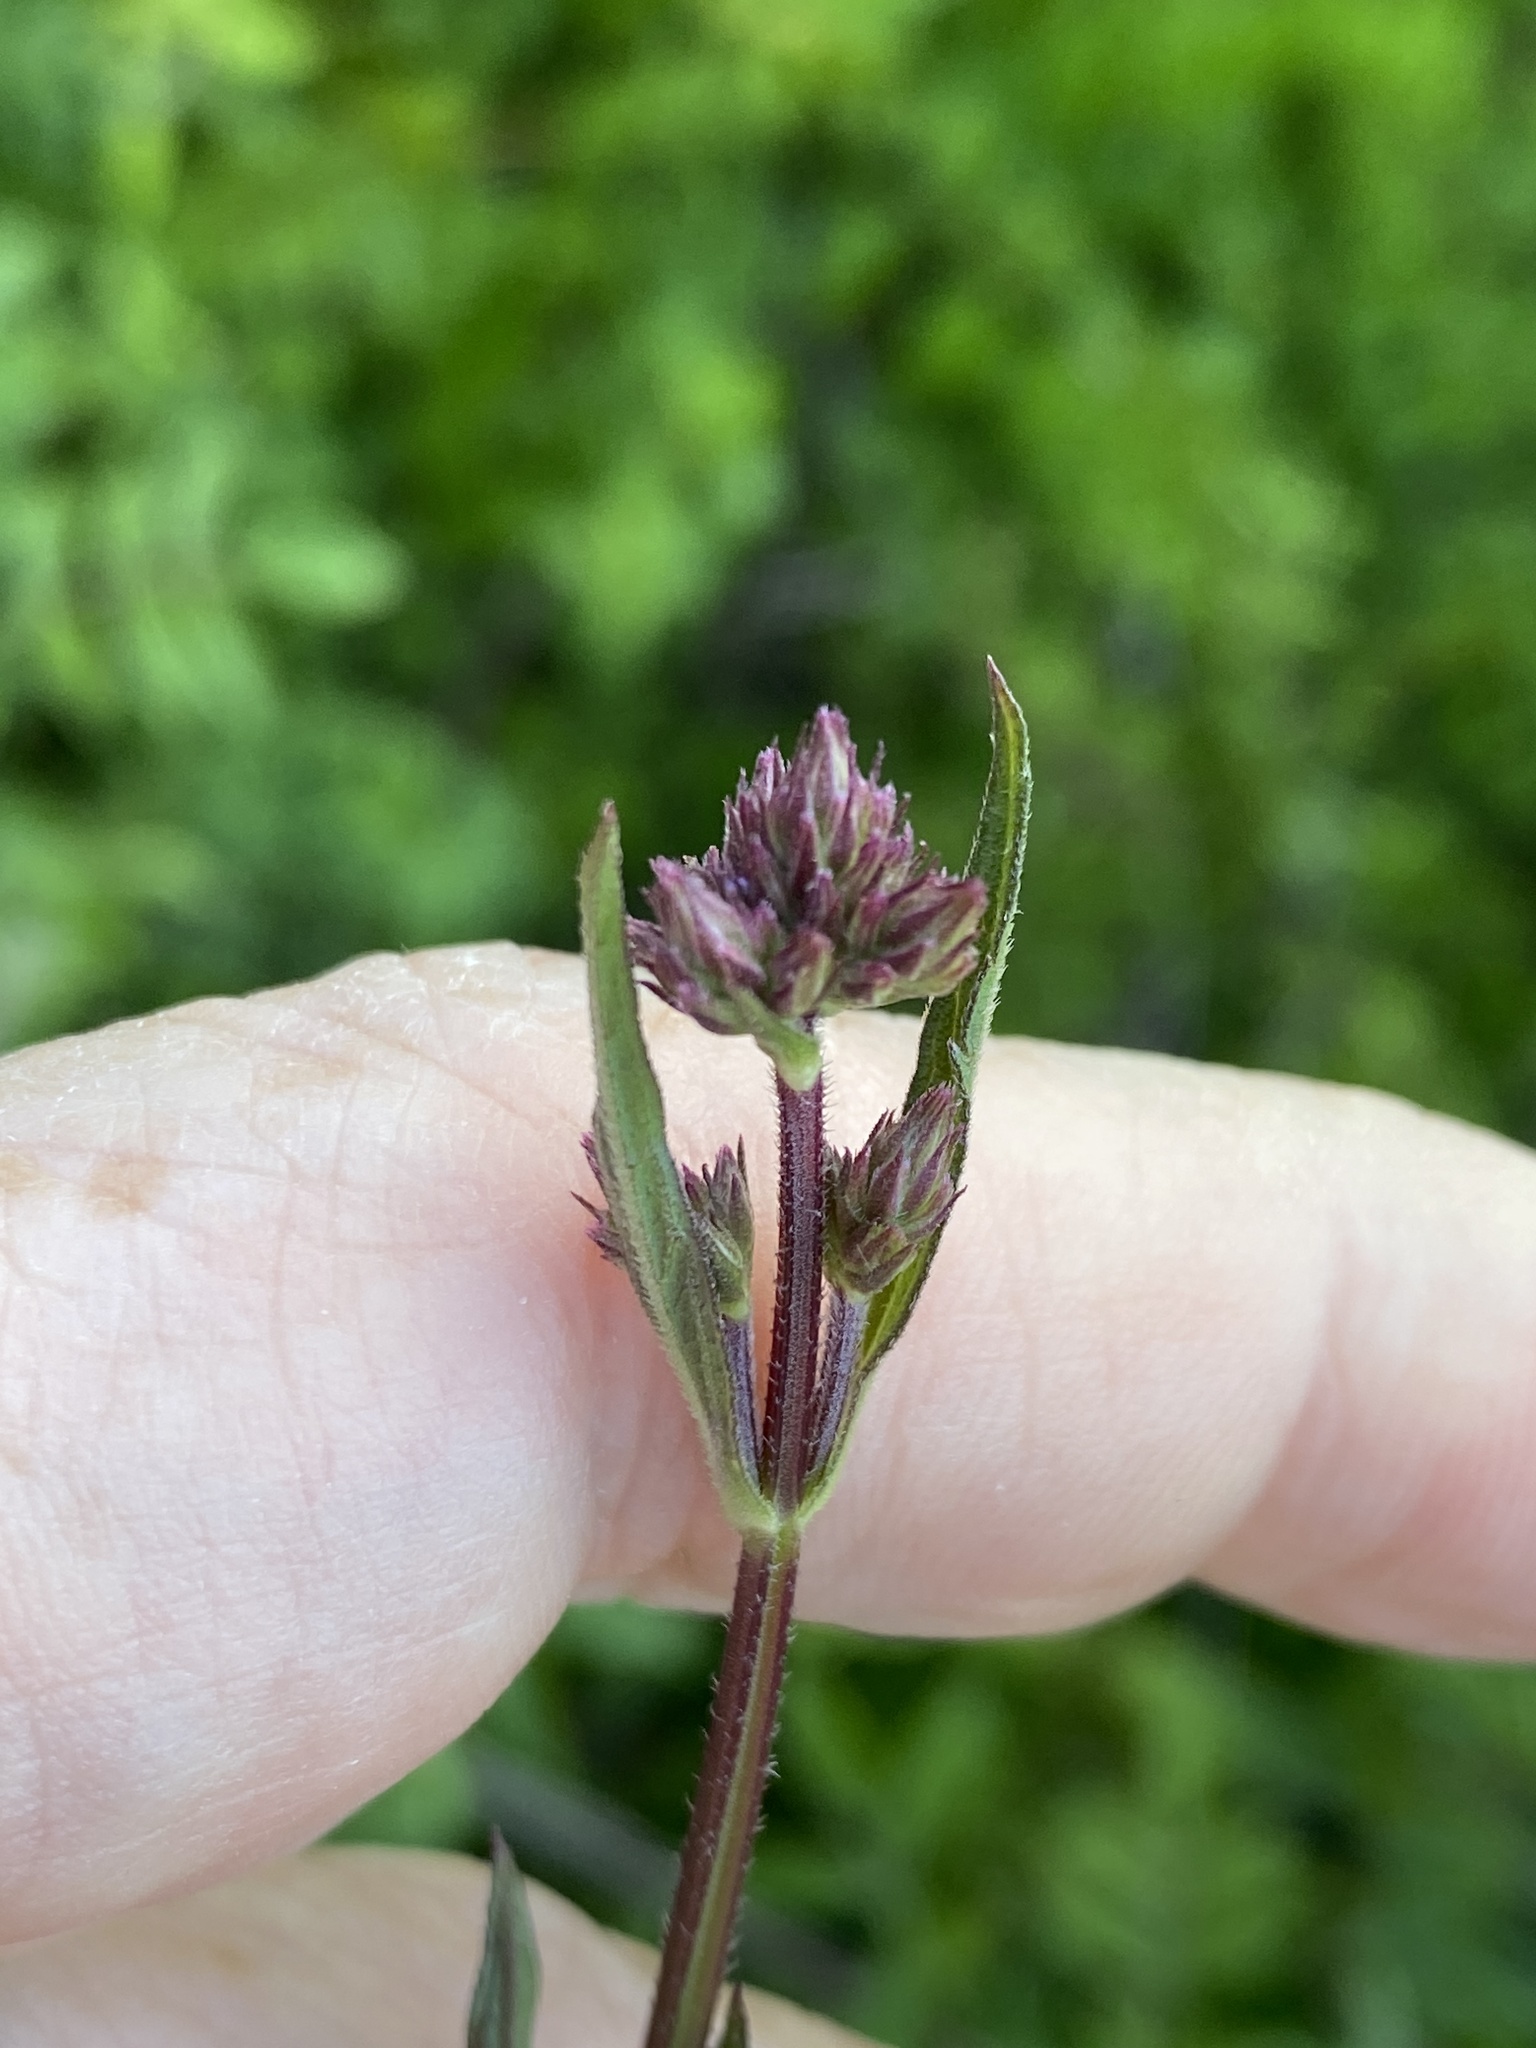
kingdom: Plantae
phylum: Tracheophyta
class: Magnoliopsida
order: Lamiales
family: Verbenaceae
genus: Verbena
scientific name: Verbena brasiliensis
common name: Brazilian vervain
